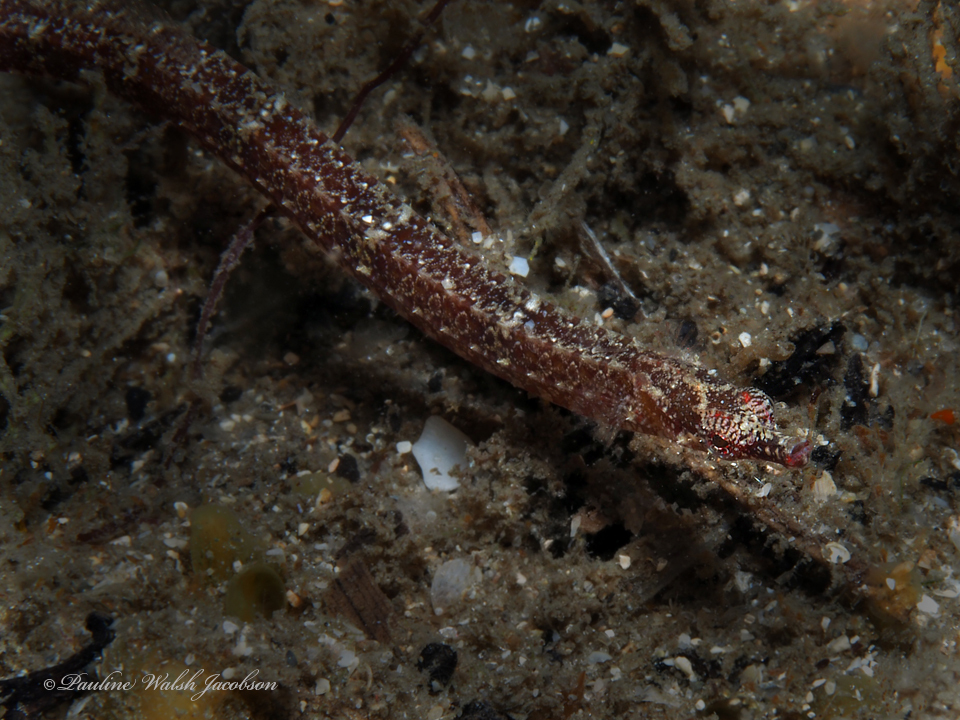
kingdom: Animalia
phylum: Chordata
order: Syngnathiformes
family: Syngnathidae
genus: Micrognathus
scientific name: Micrognathus crinitus
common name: Banded pipefish
